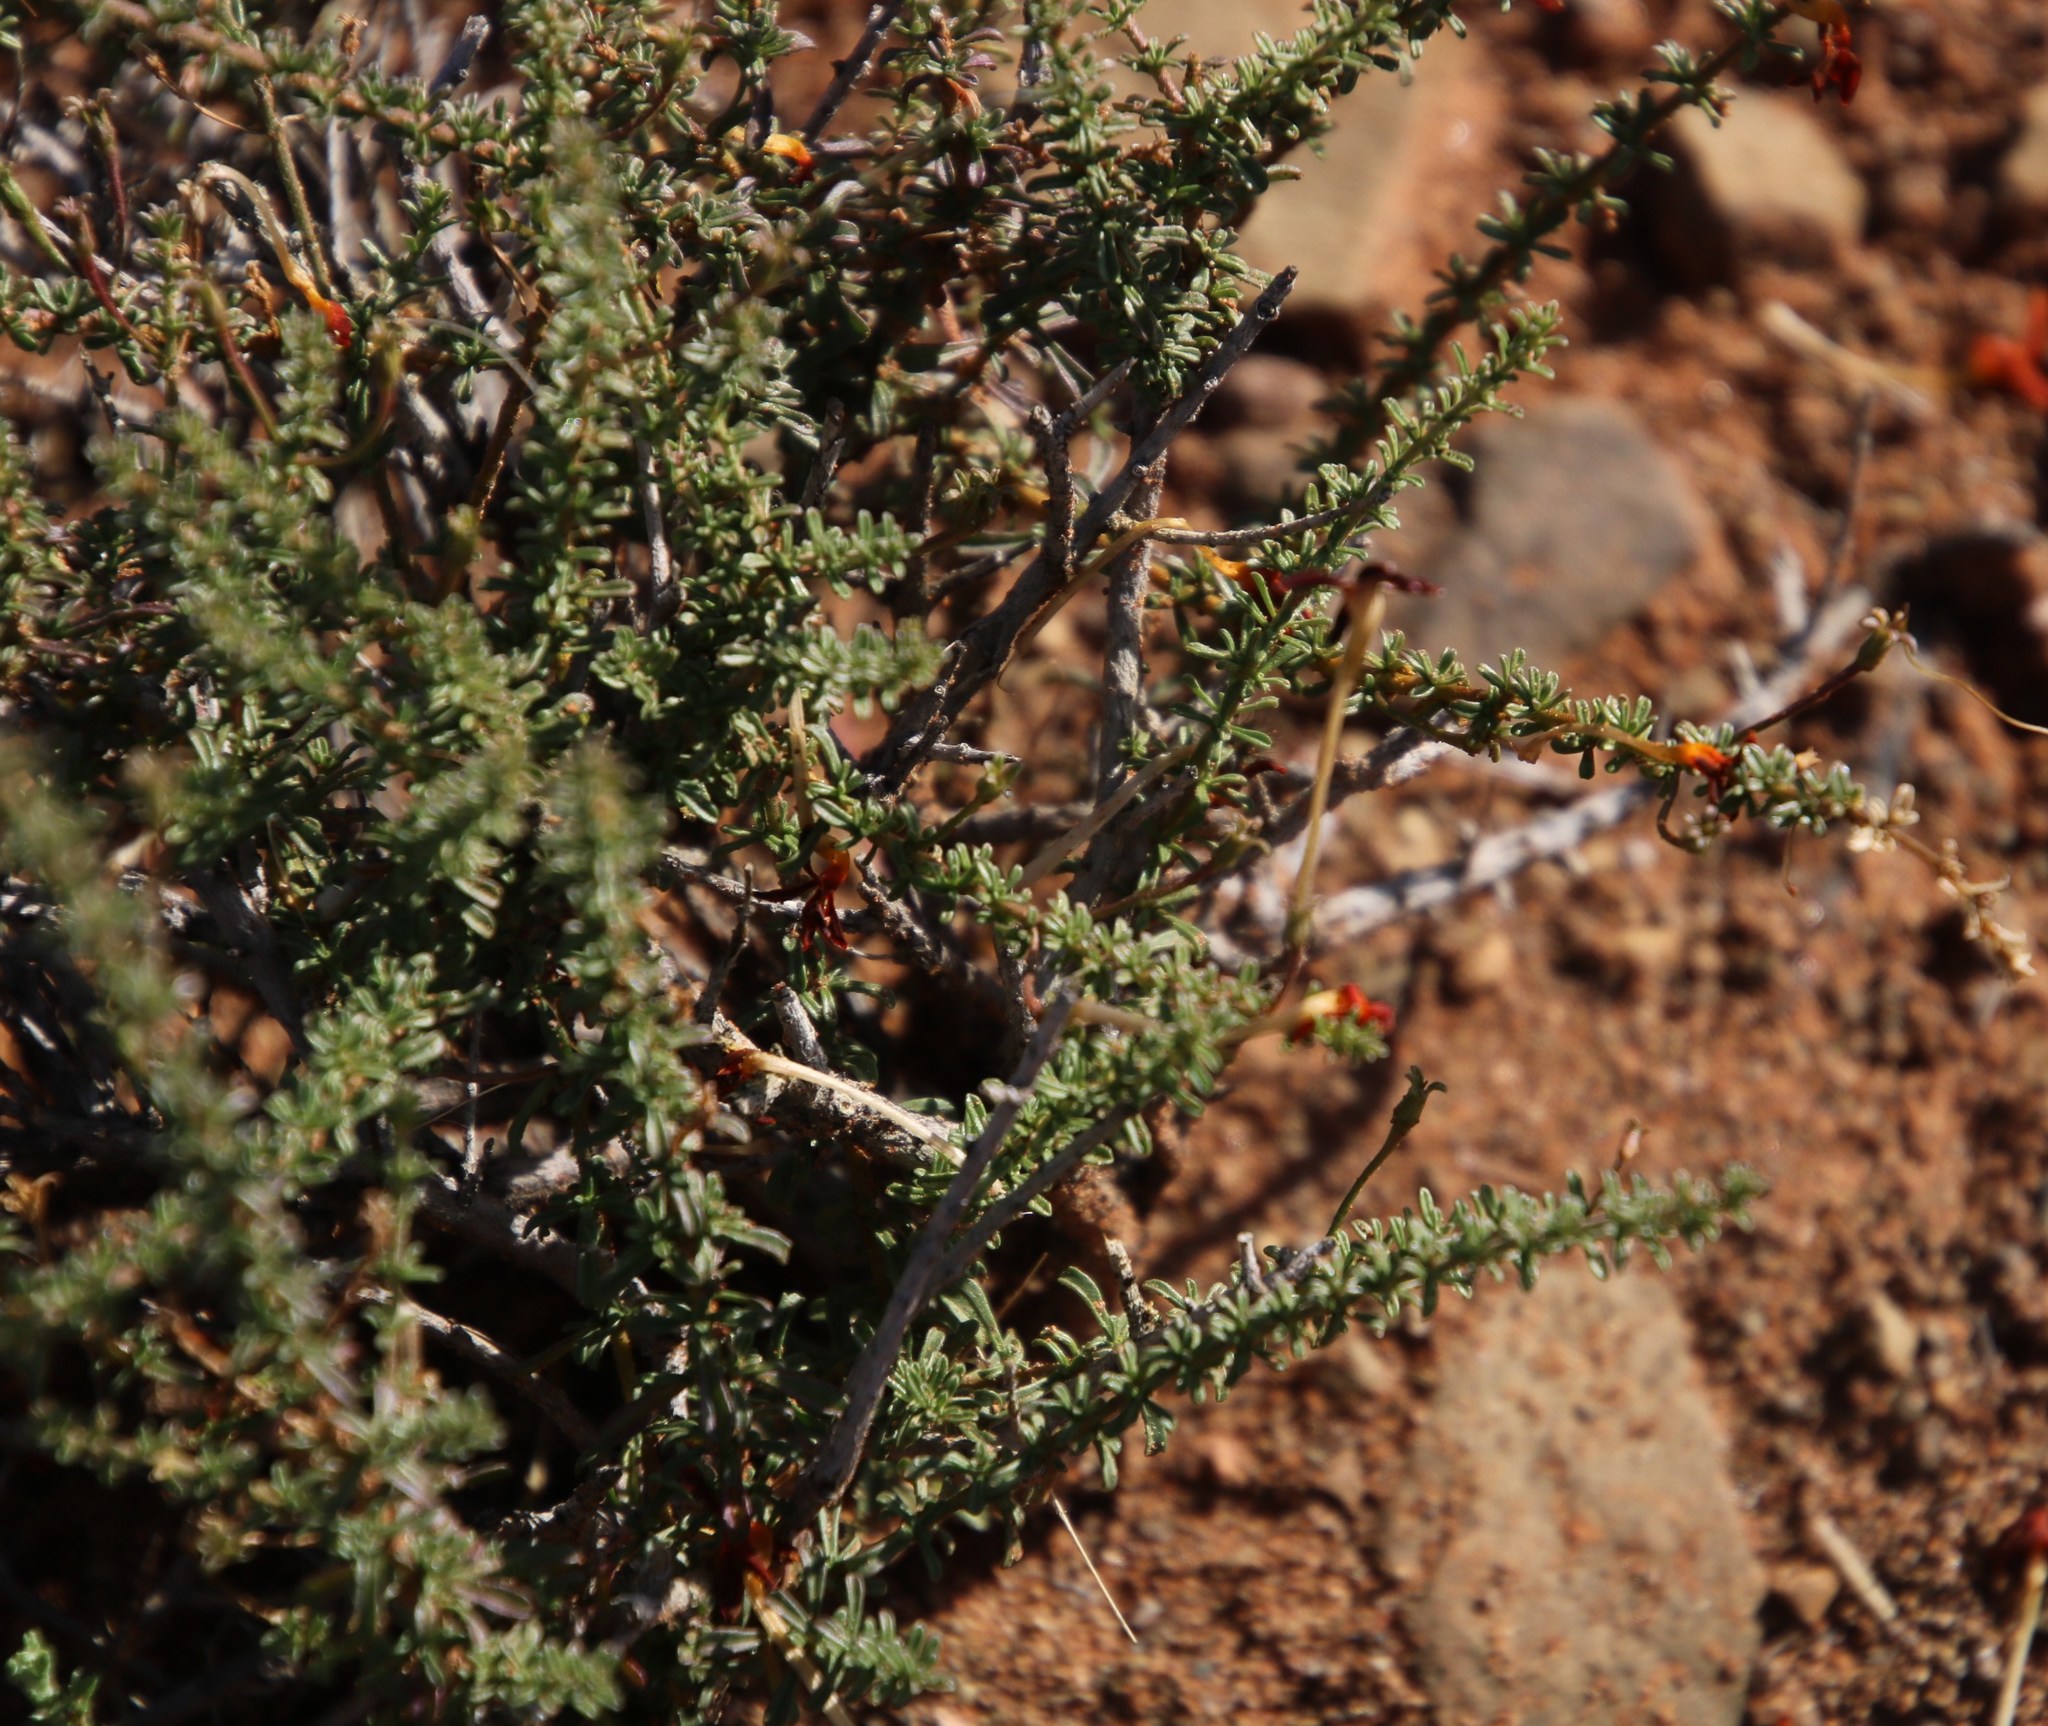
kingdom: Plantae
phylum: Tracheophyta
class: Magnoliopsida
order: Lamiales
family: Scrophulariaceae
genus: Jamesbrittenia
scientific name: Jamesbrittenia atropurpurea
